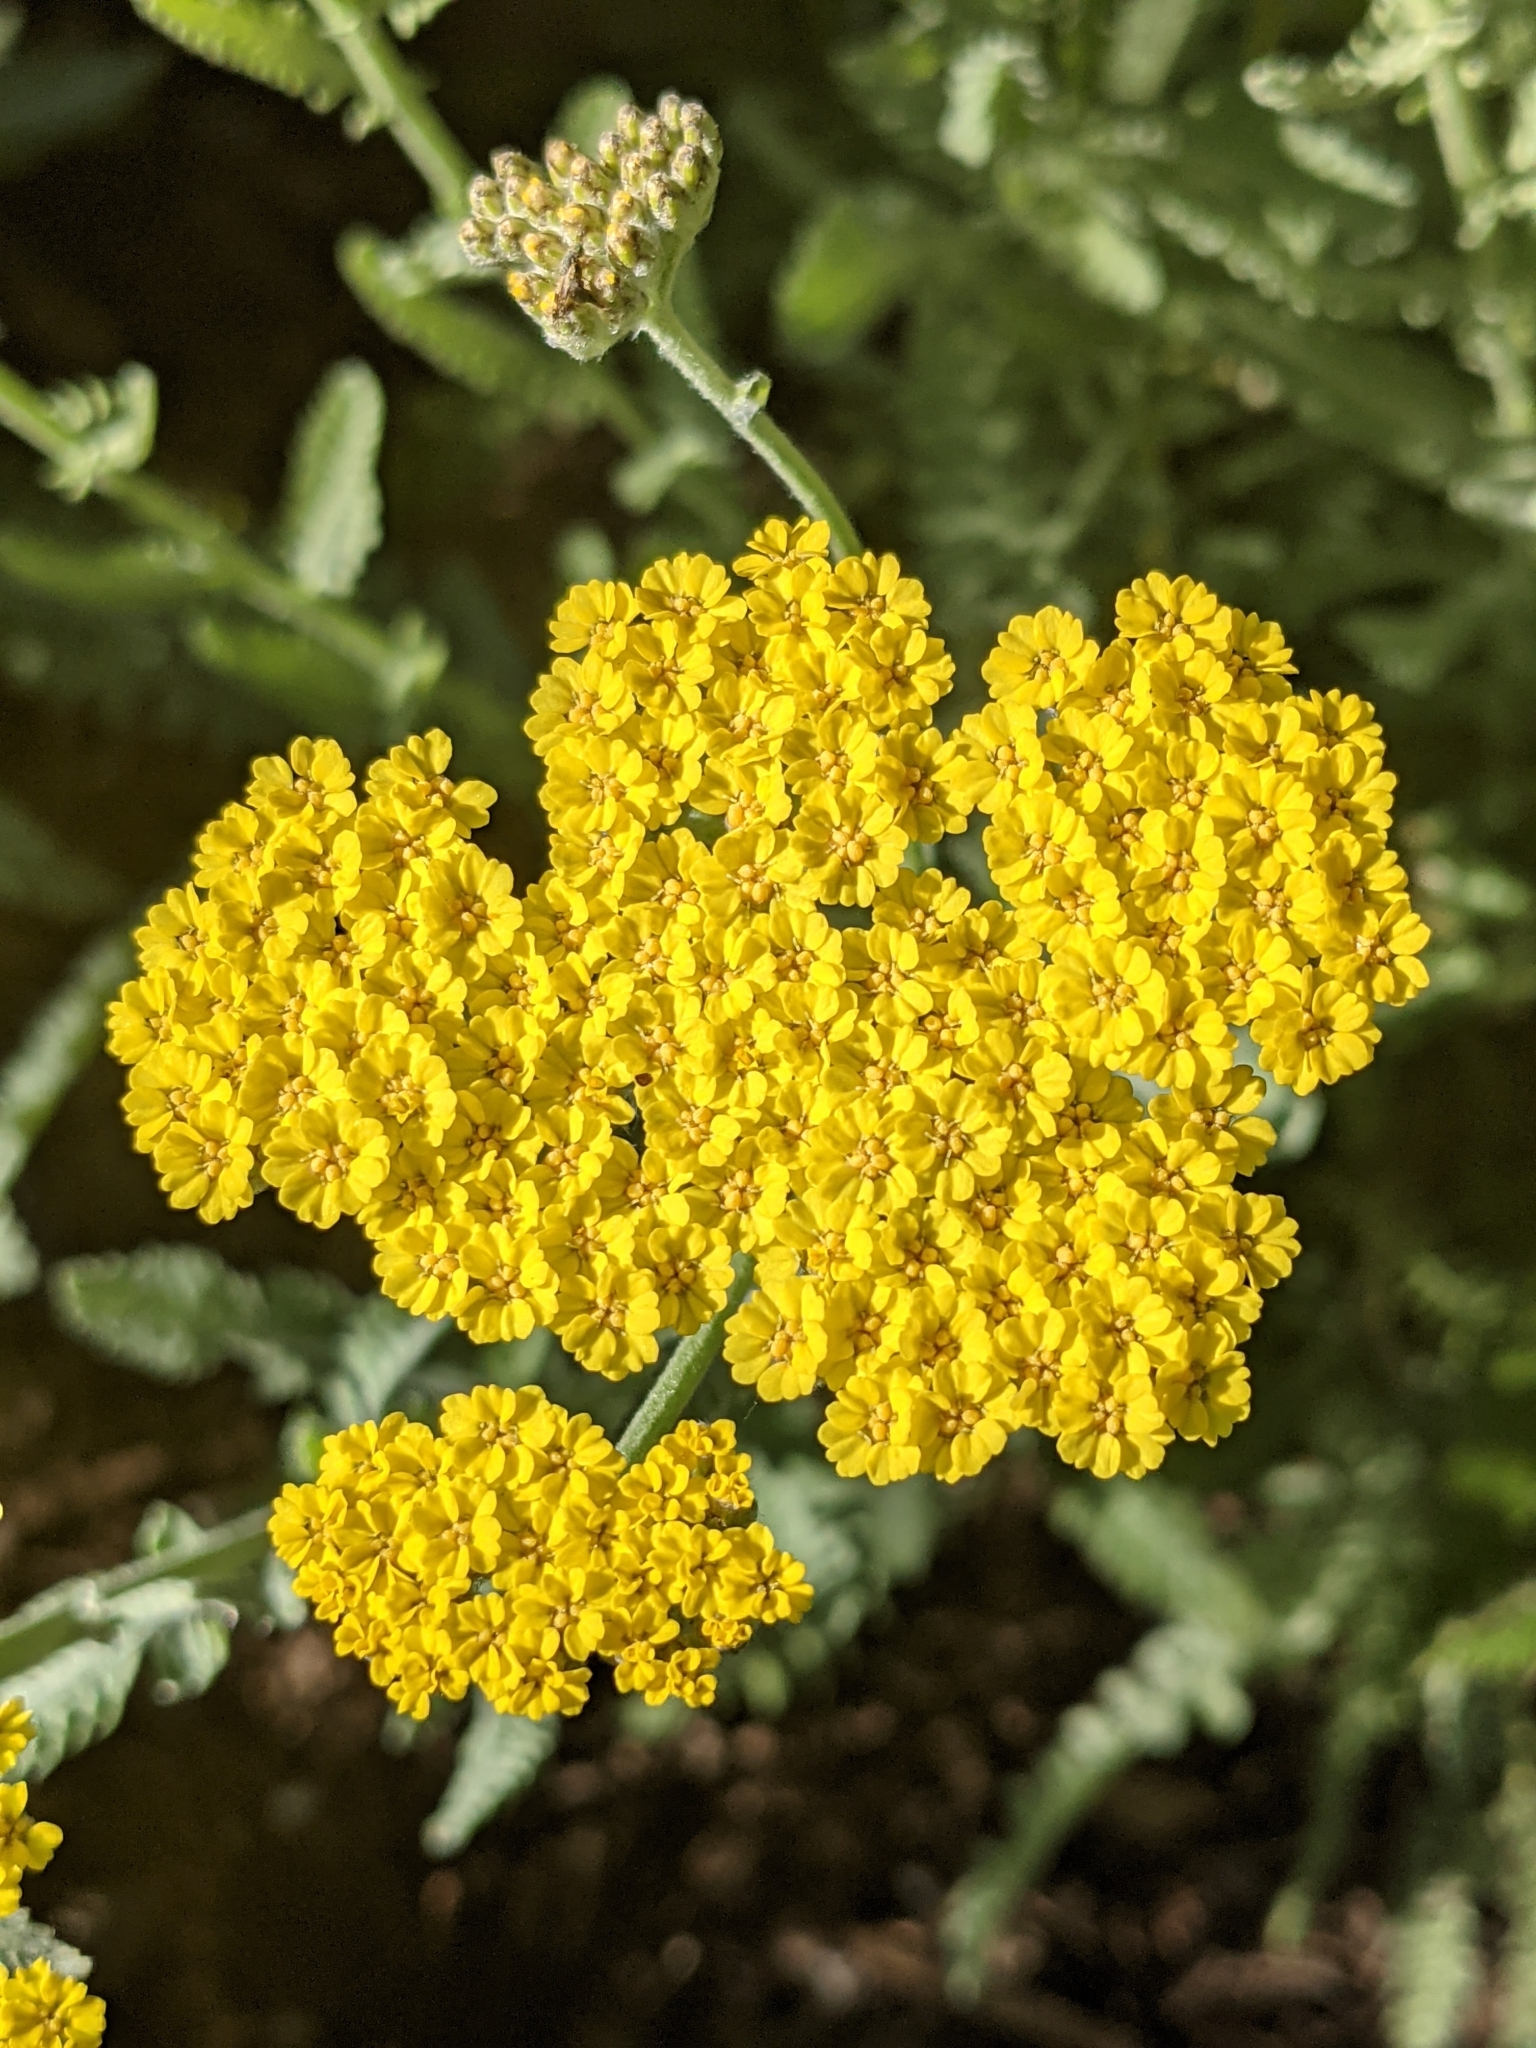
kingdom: Plantae
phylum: Tracheophyta
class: Magnoliopsida
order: Asterales
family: Asteraceae
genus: Achillea
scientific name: Achillea filipendulina
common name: Fernleaf yarrow
